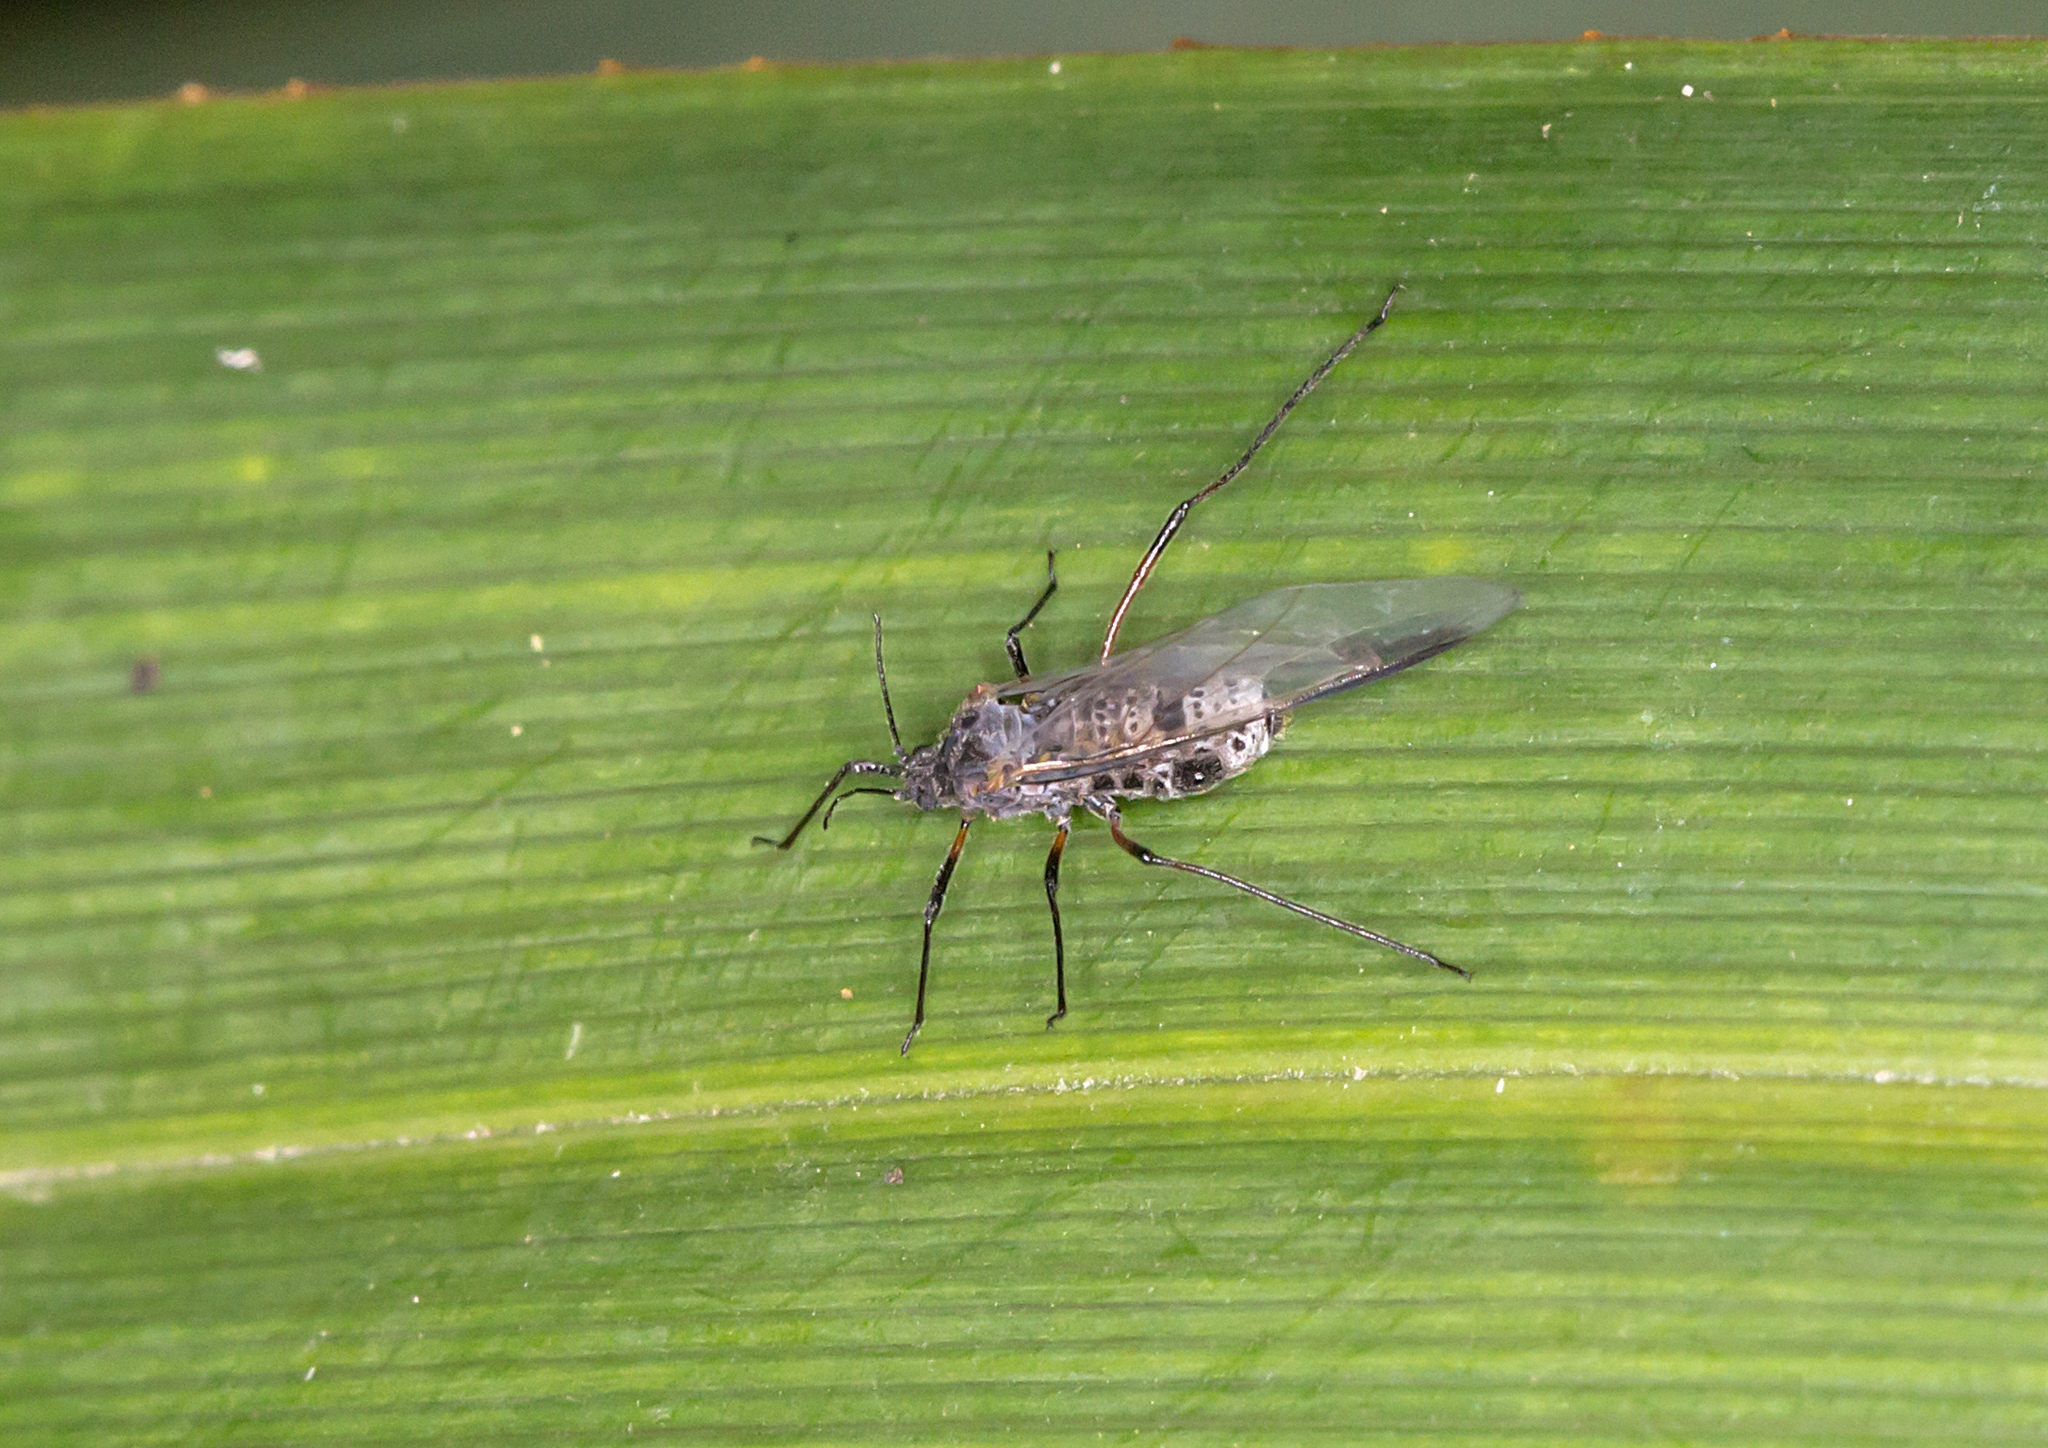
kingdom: Animalia
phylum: Arthropoda
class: Insecta
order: Hemiptera
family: Aphididae
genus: Tuberolachnus
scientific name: Tuberolachnus salignus
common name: Giant willow aphid
